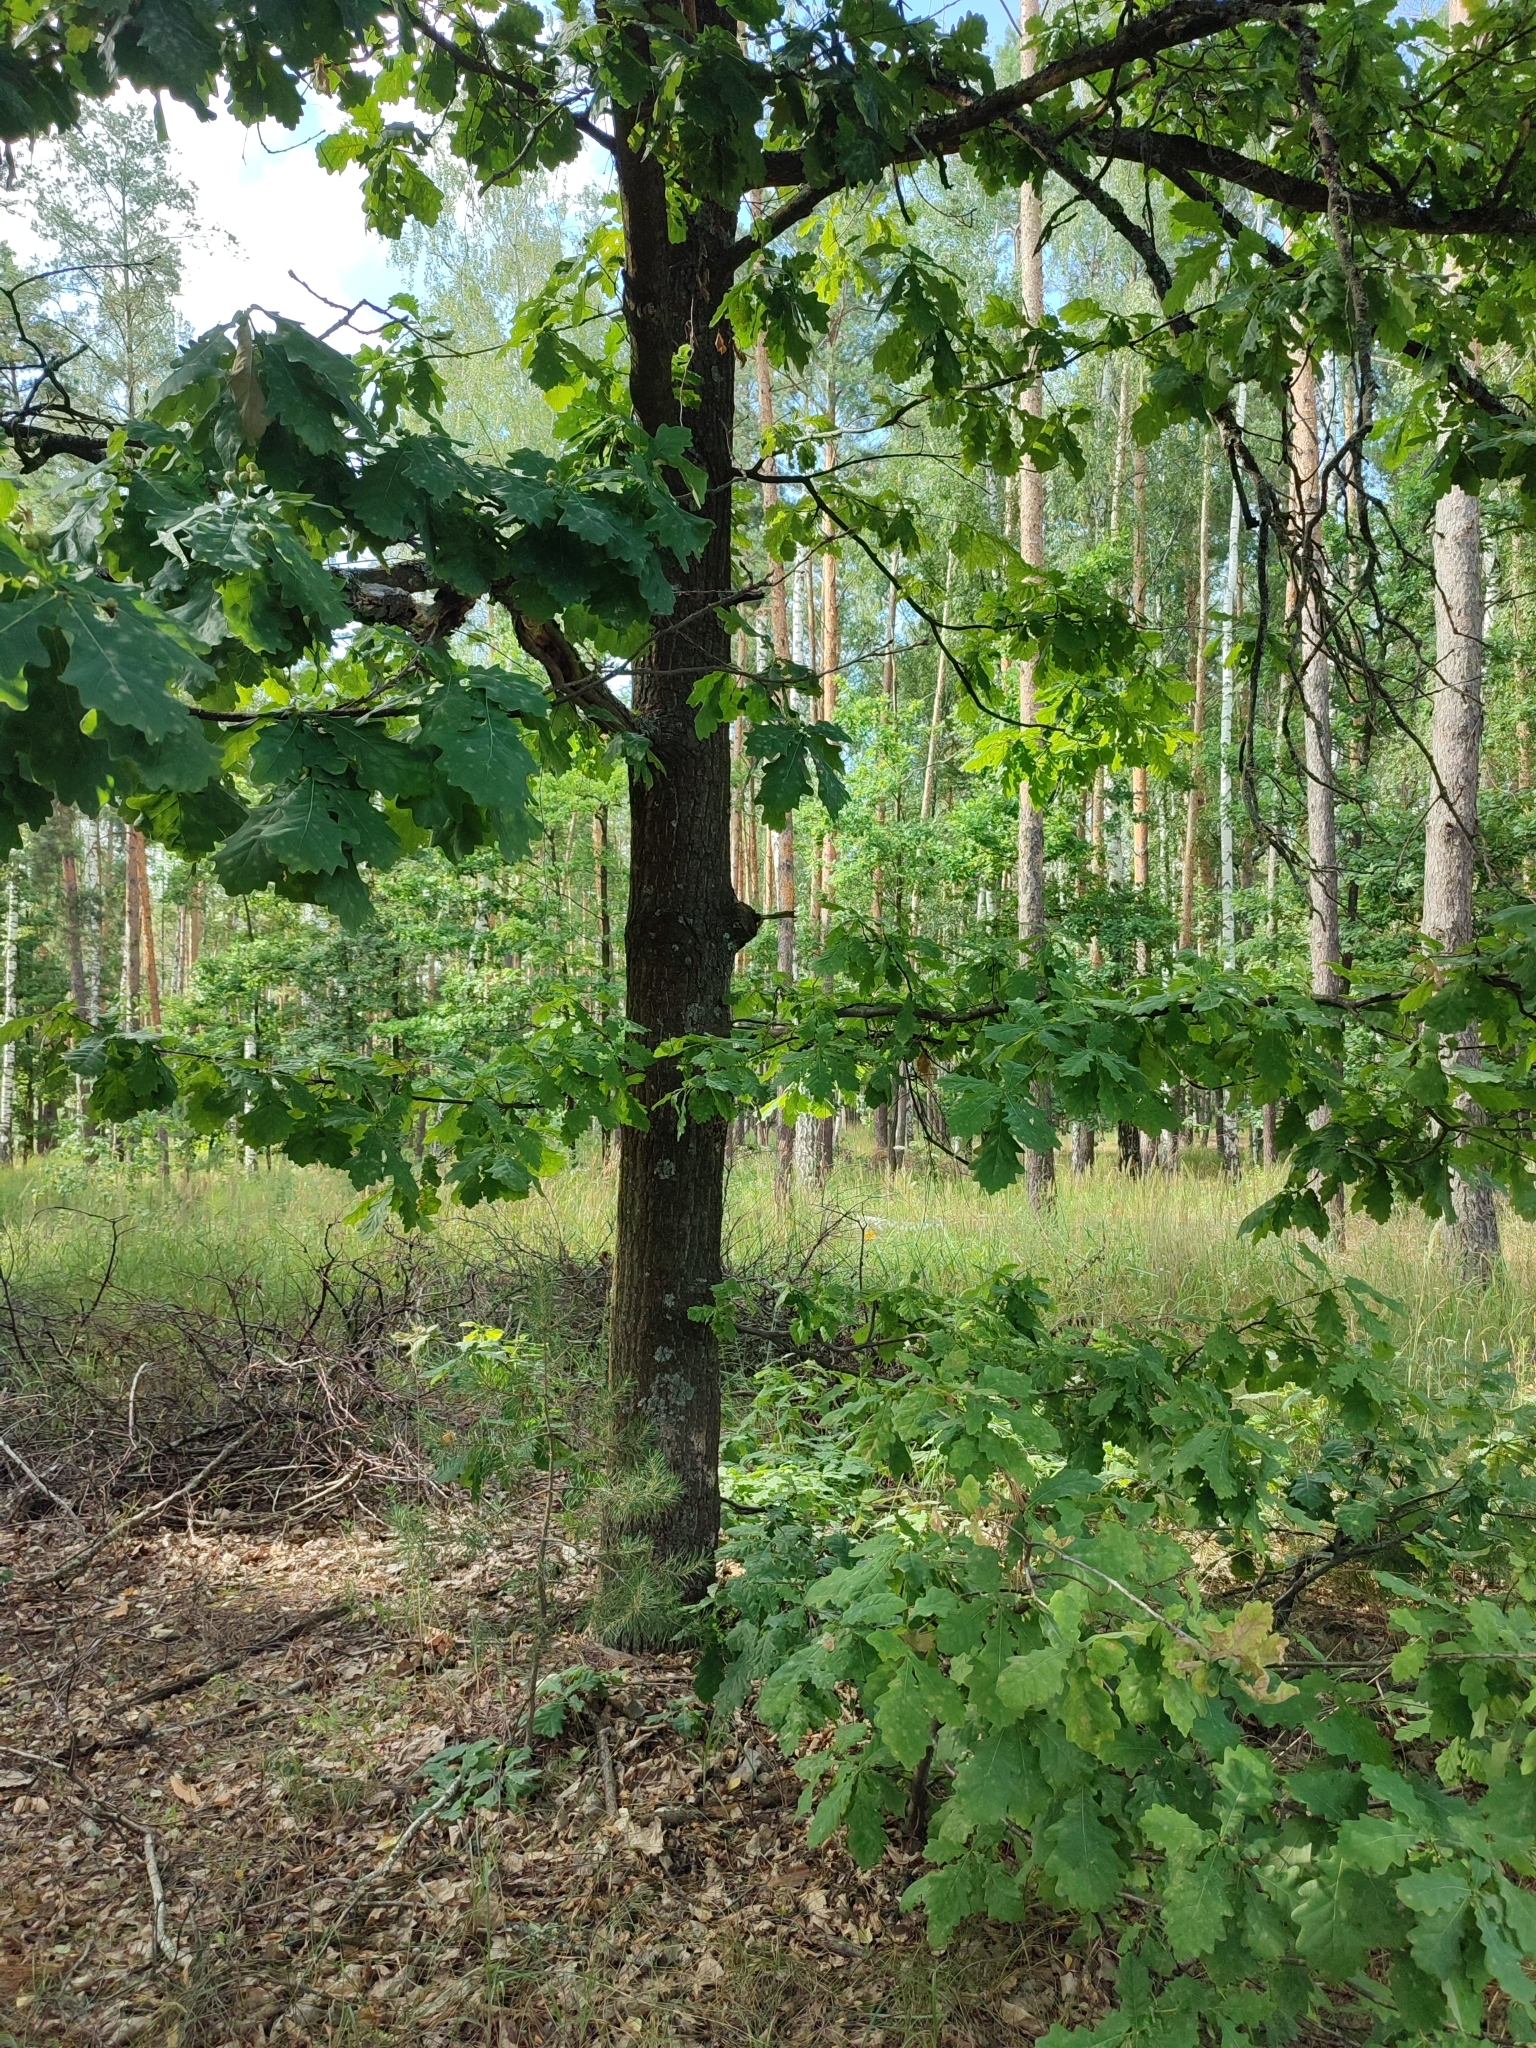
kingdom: Plantae
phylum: Tracheophyta
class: Magnoliopsida
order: Fagales
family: Fagaceae
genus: Quercus
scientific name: Quercus robur
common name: Pedunculate oak
